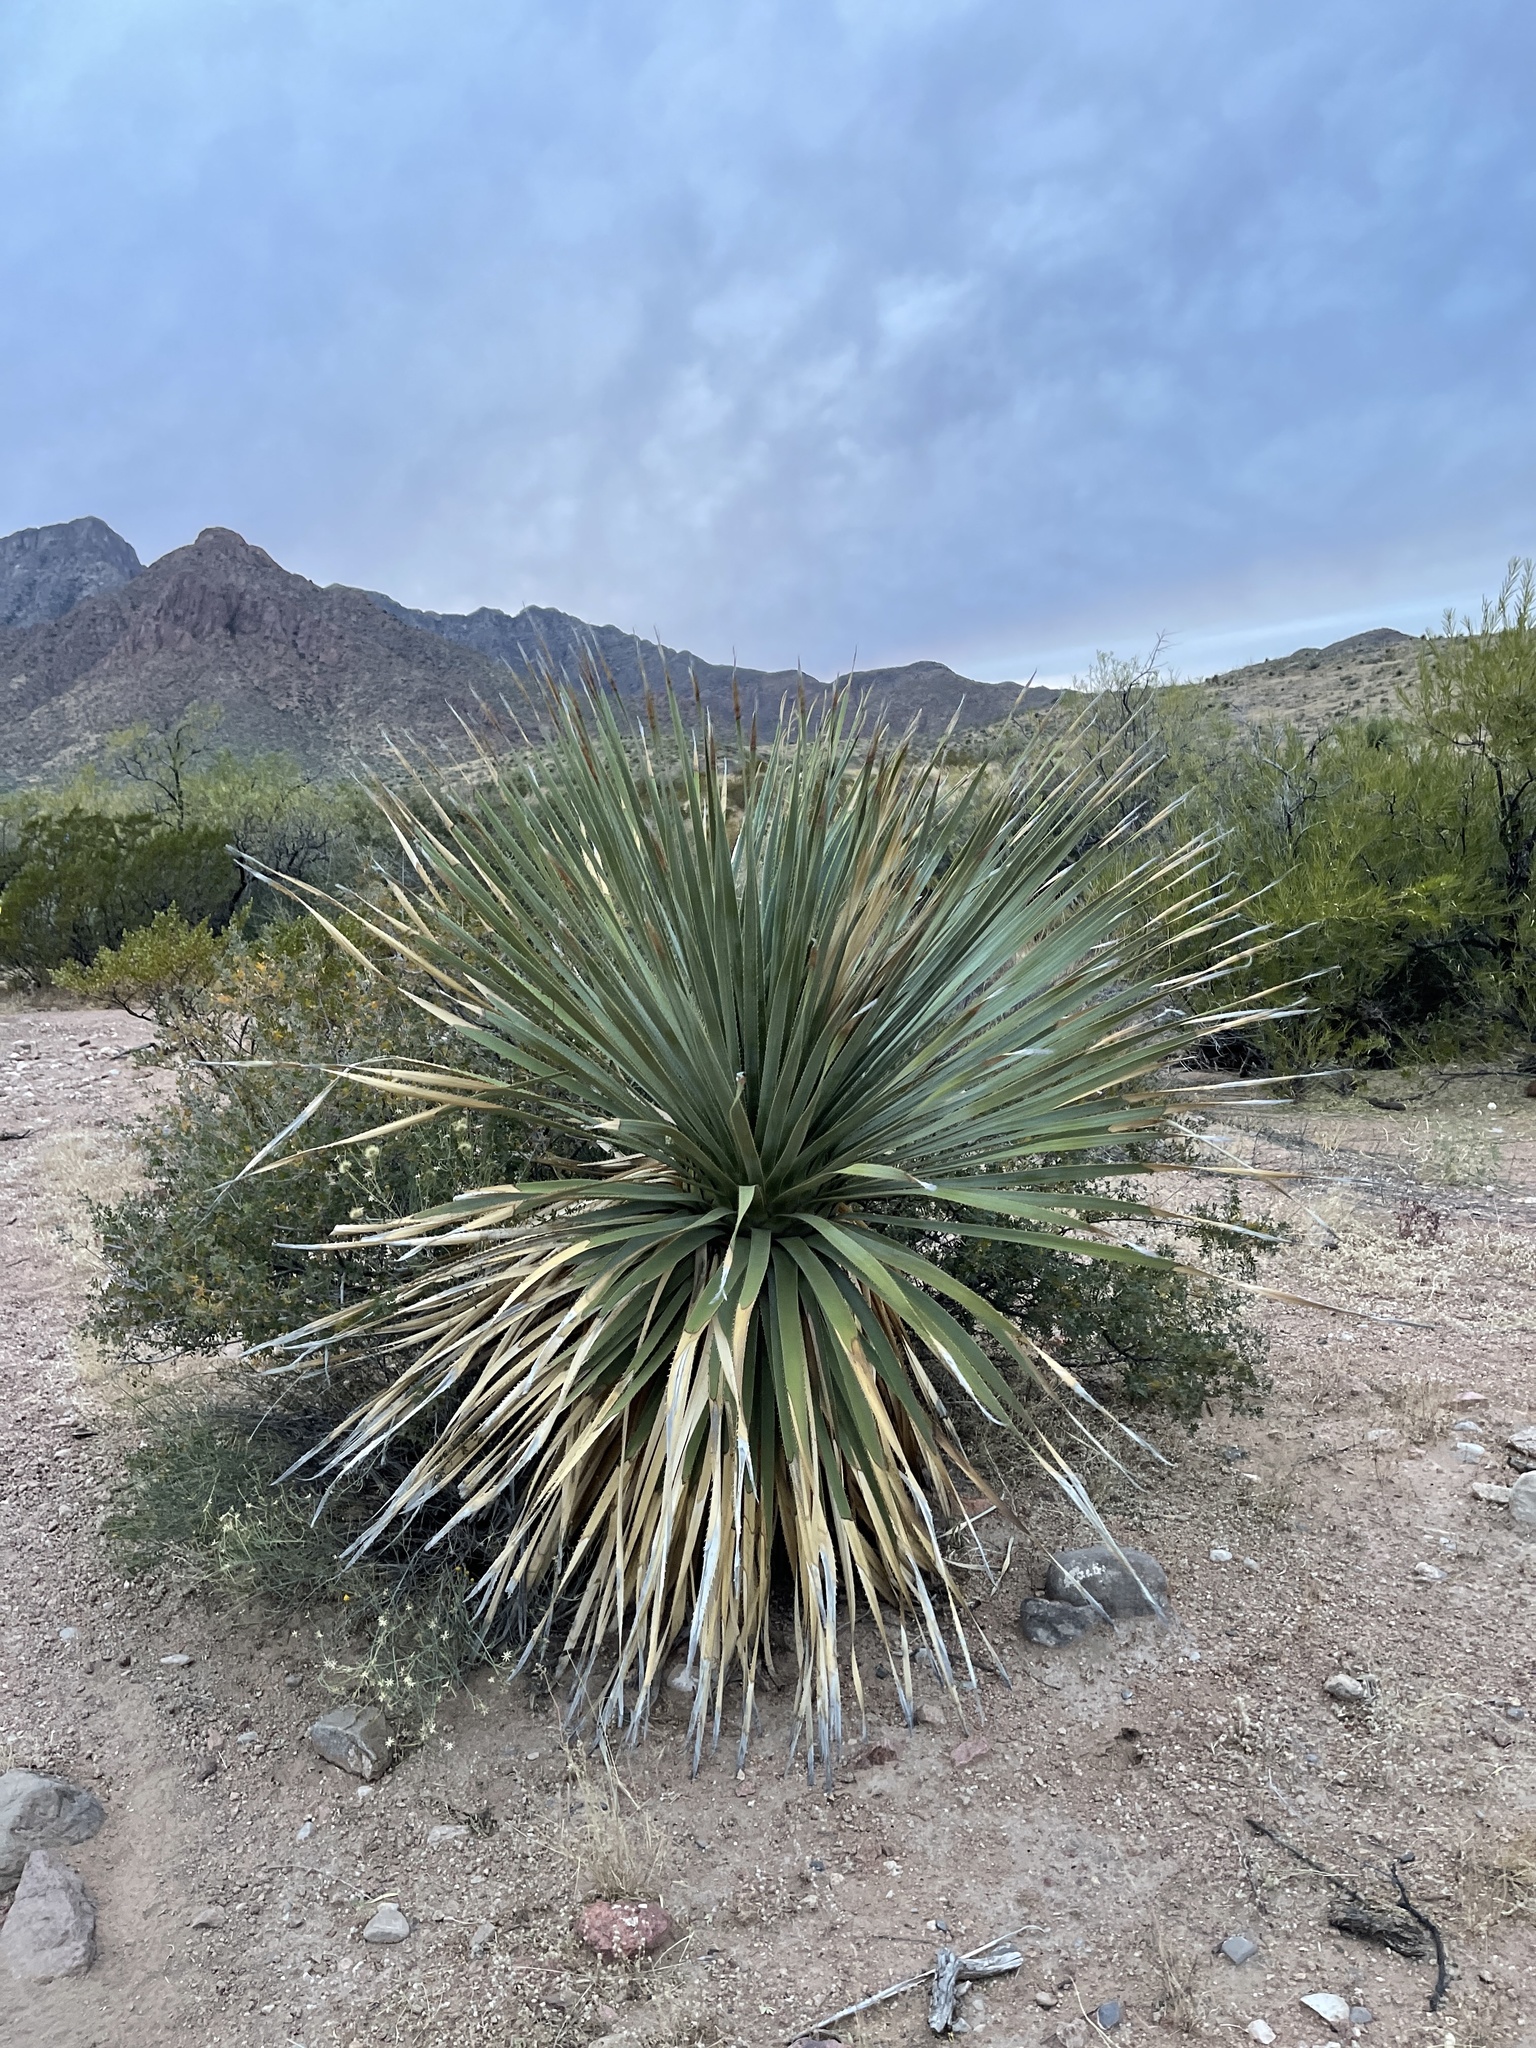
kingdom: Plantae
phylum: Tracheophyta
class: Liliopsida
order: Asparagales
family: Asparagaceae
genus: Dasylirion
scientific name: Dasylirion wheeleri
